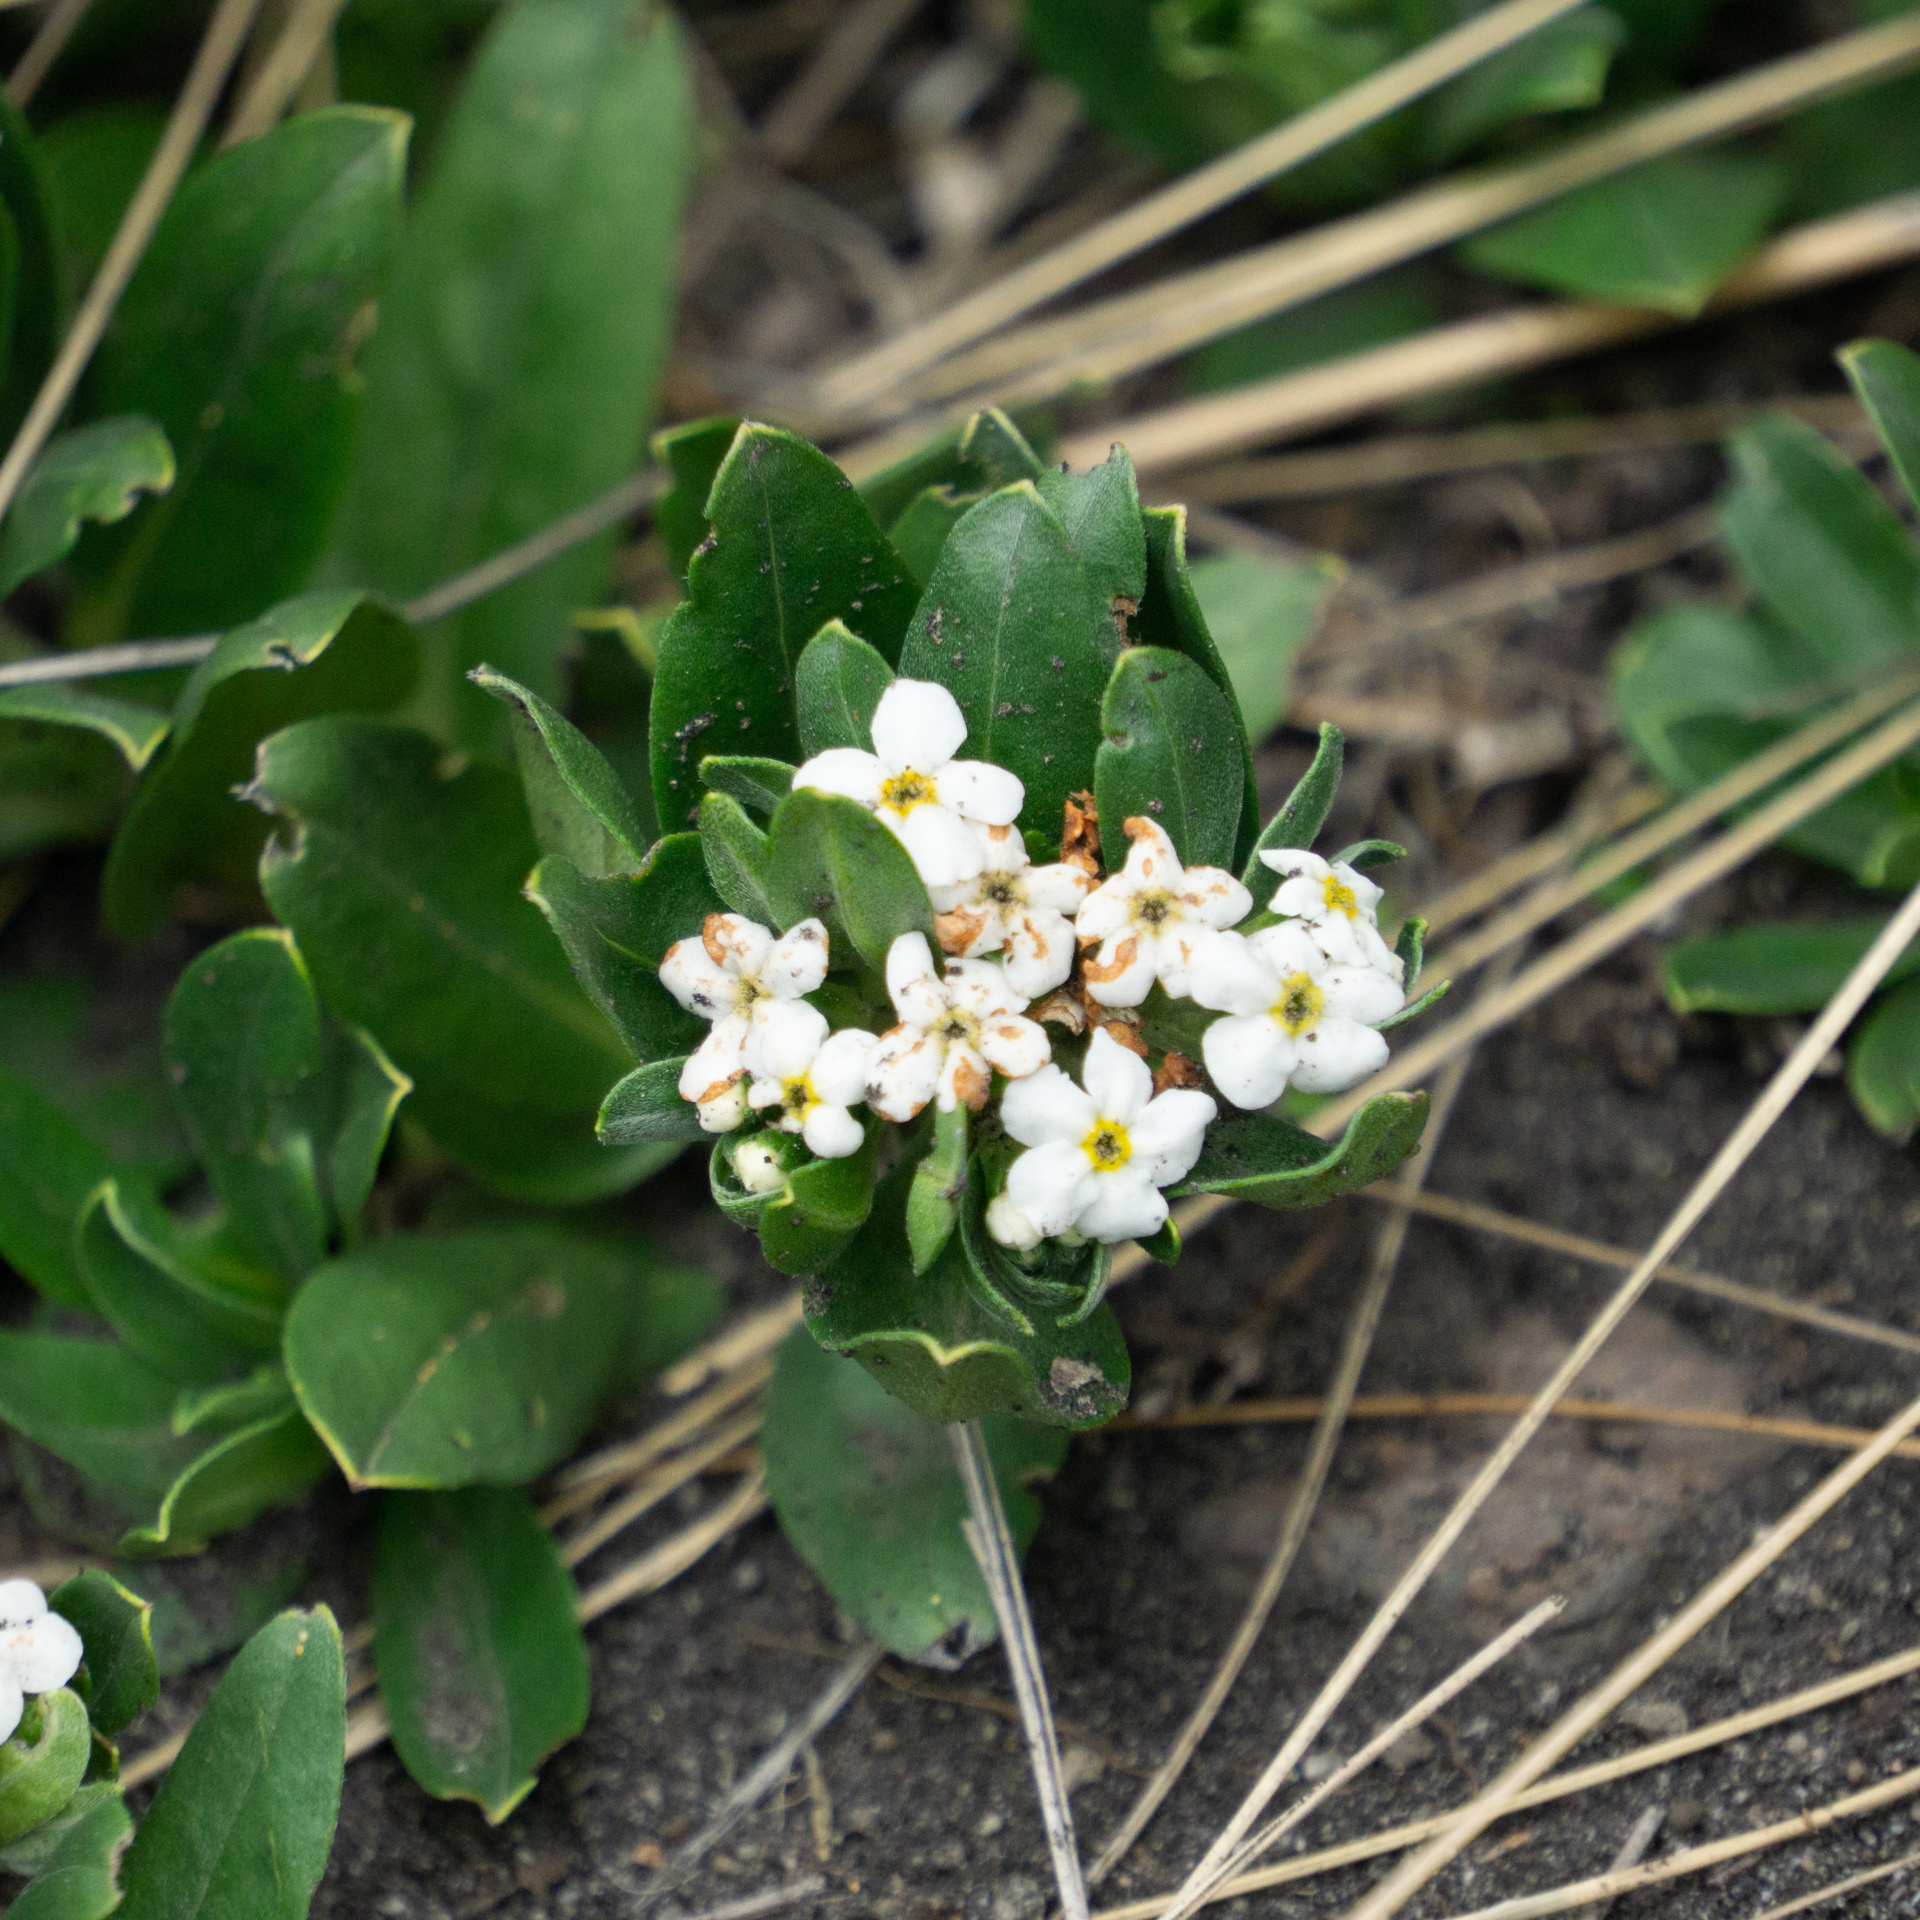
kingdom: Plantae
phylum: Tracheophyta
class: Magnoliopsida
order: Boraginales
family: Boraginaceae
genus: Lithospermum
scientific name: Lithospermum distichum
